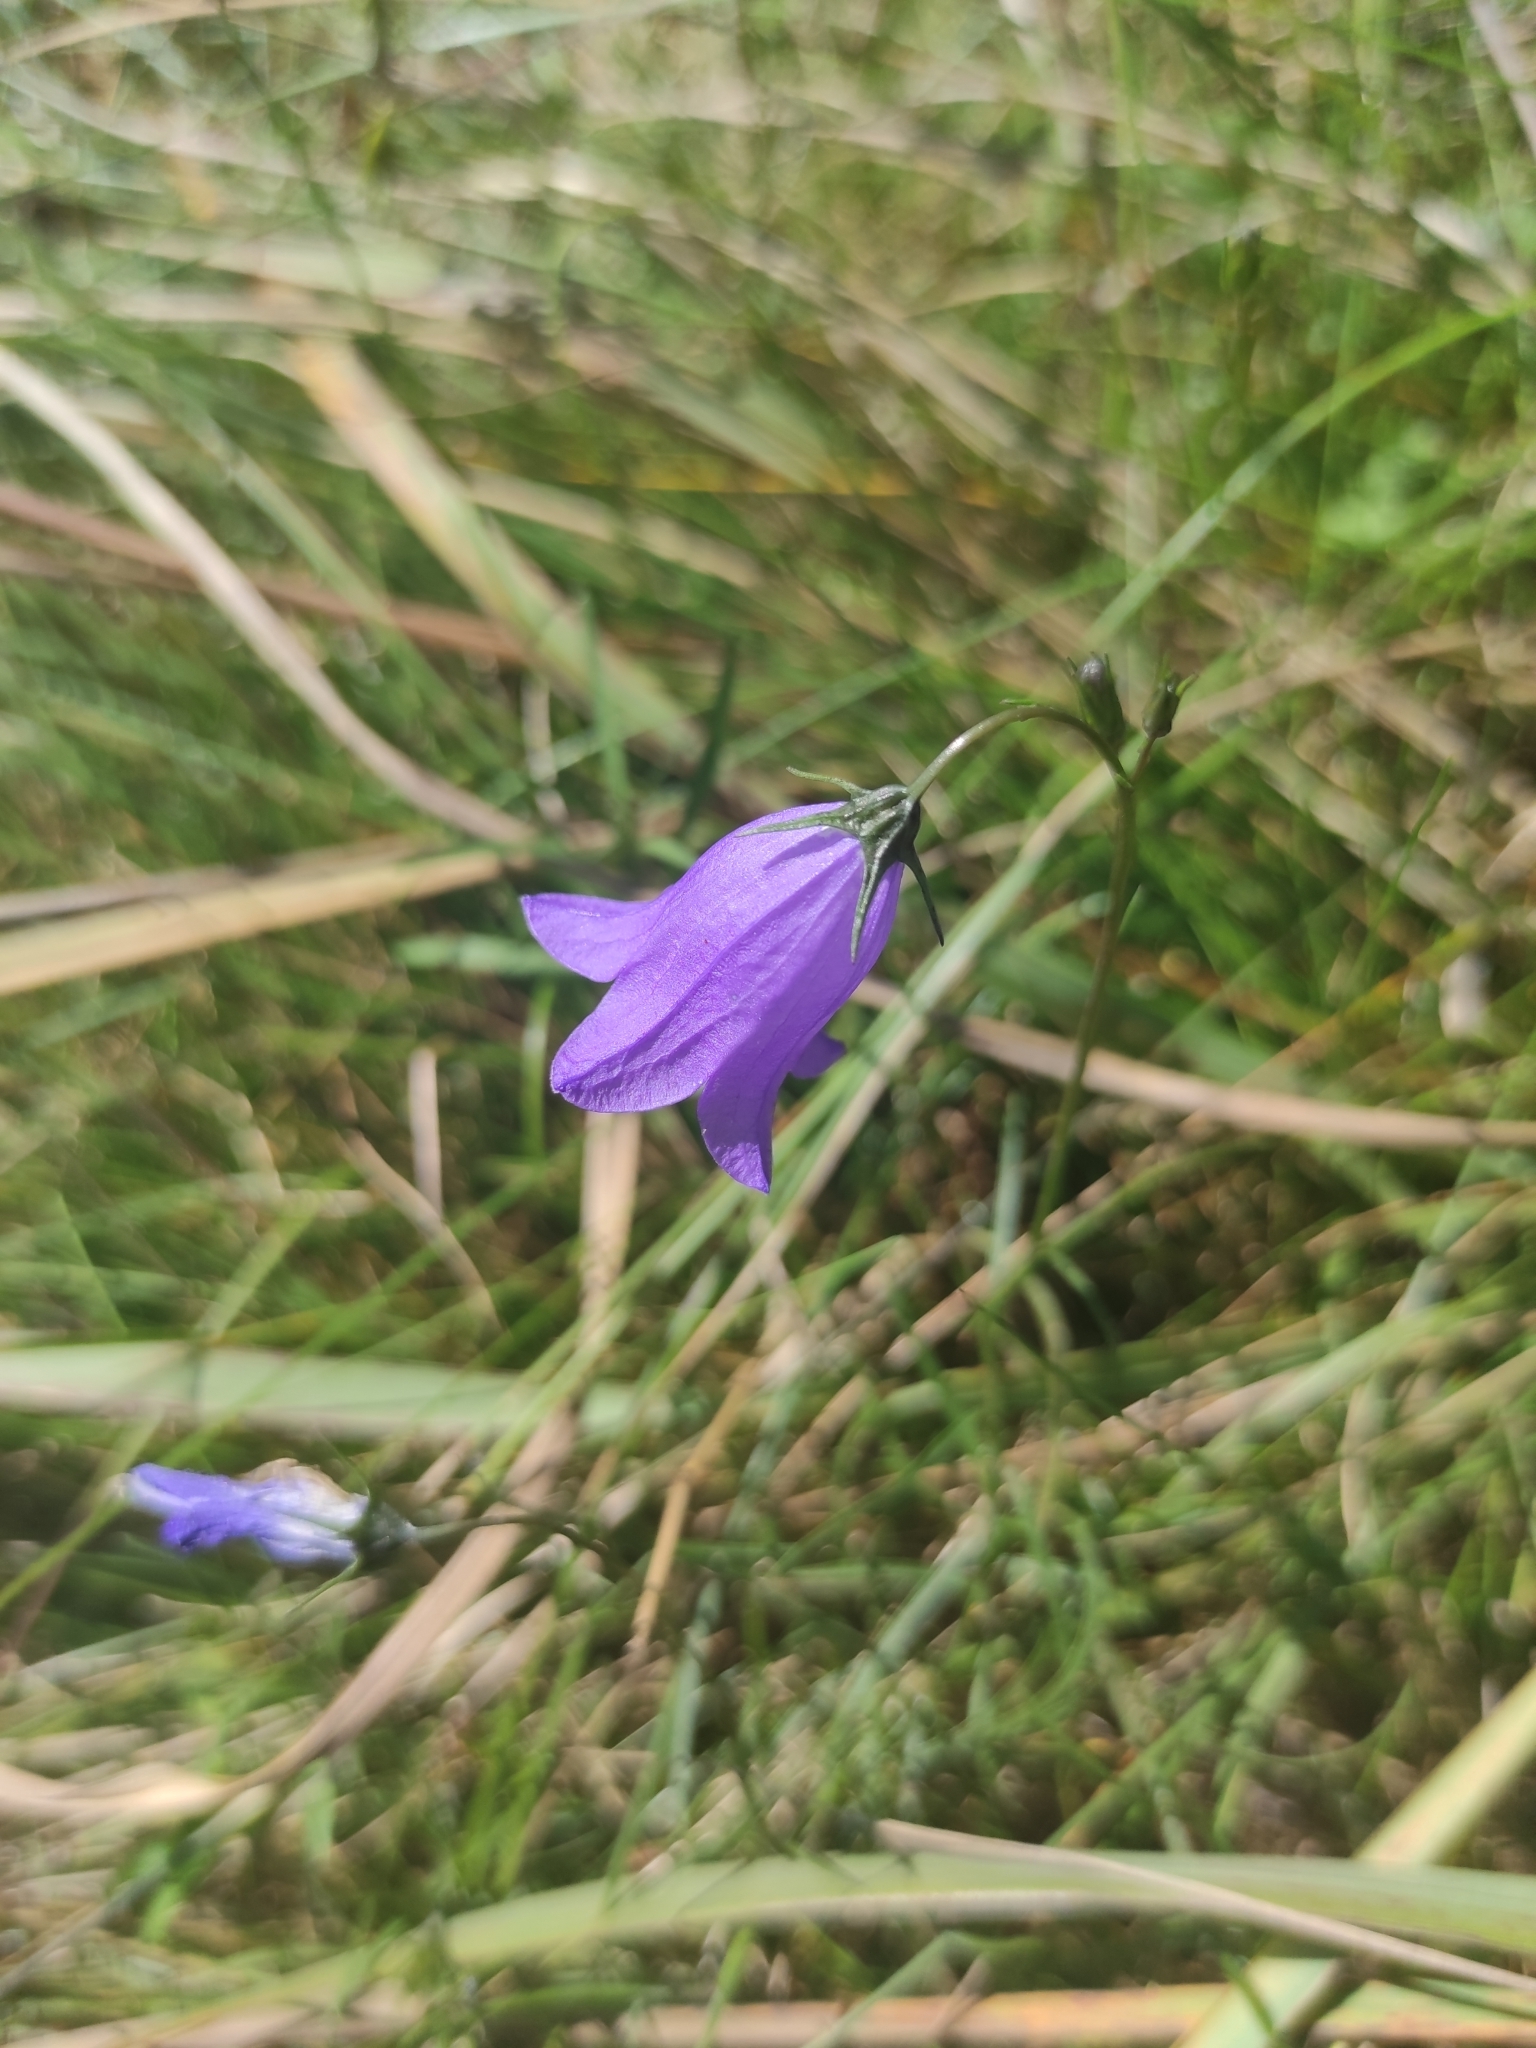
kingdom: Plantae
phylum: Tracheophyta
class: Magnoliopsida
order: Asterales
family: Campanulaceae
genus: Campanula
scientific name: Campanula rotundifolia
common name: Harebell
